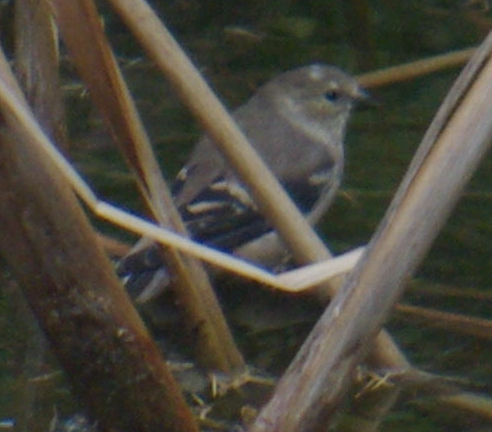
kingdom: Animalia
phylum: Chordata
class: Aves
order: Passeriformes
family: Fringillidae
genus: Spinus
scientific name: Spinus tristis
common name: American goldfinch
